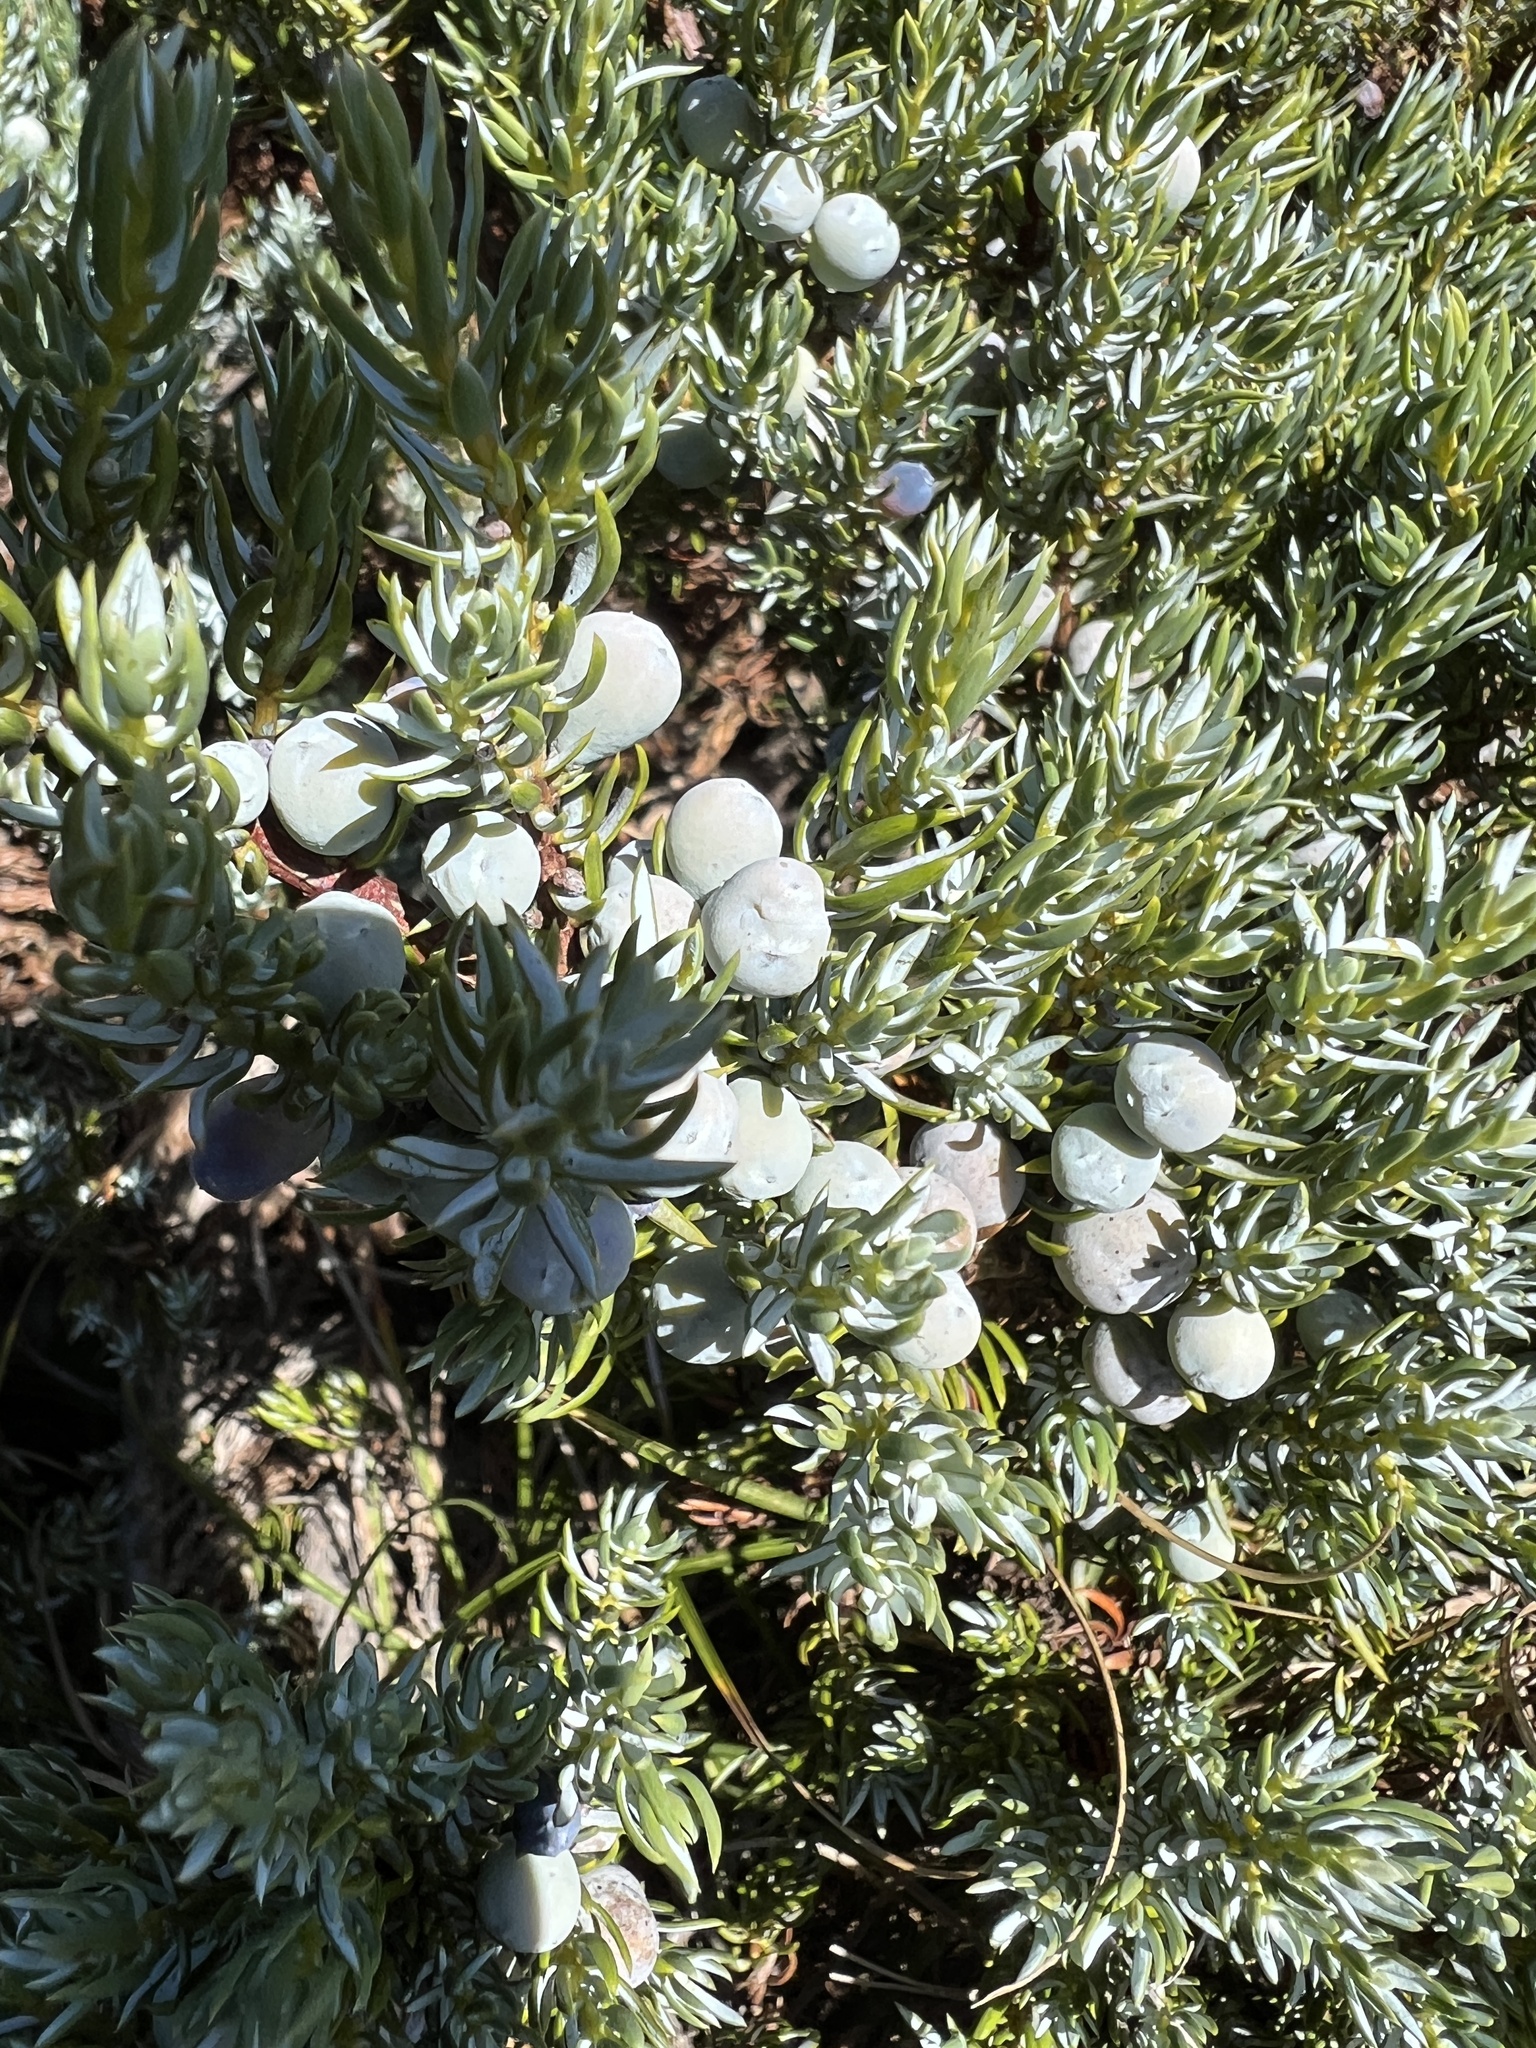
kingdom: Plantae
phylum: Tracheophyta
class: Pinopsida
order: Pinales
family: Cupressaceae
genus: Juniperus
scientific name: Juniperus communis
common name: Common juniper
